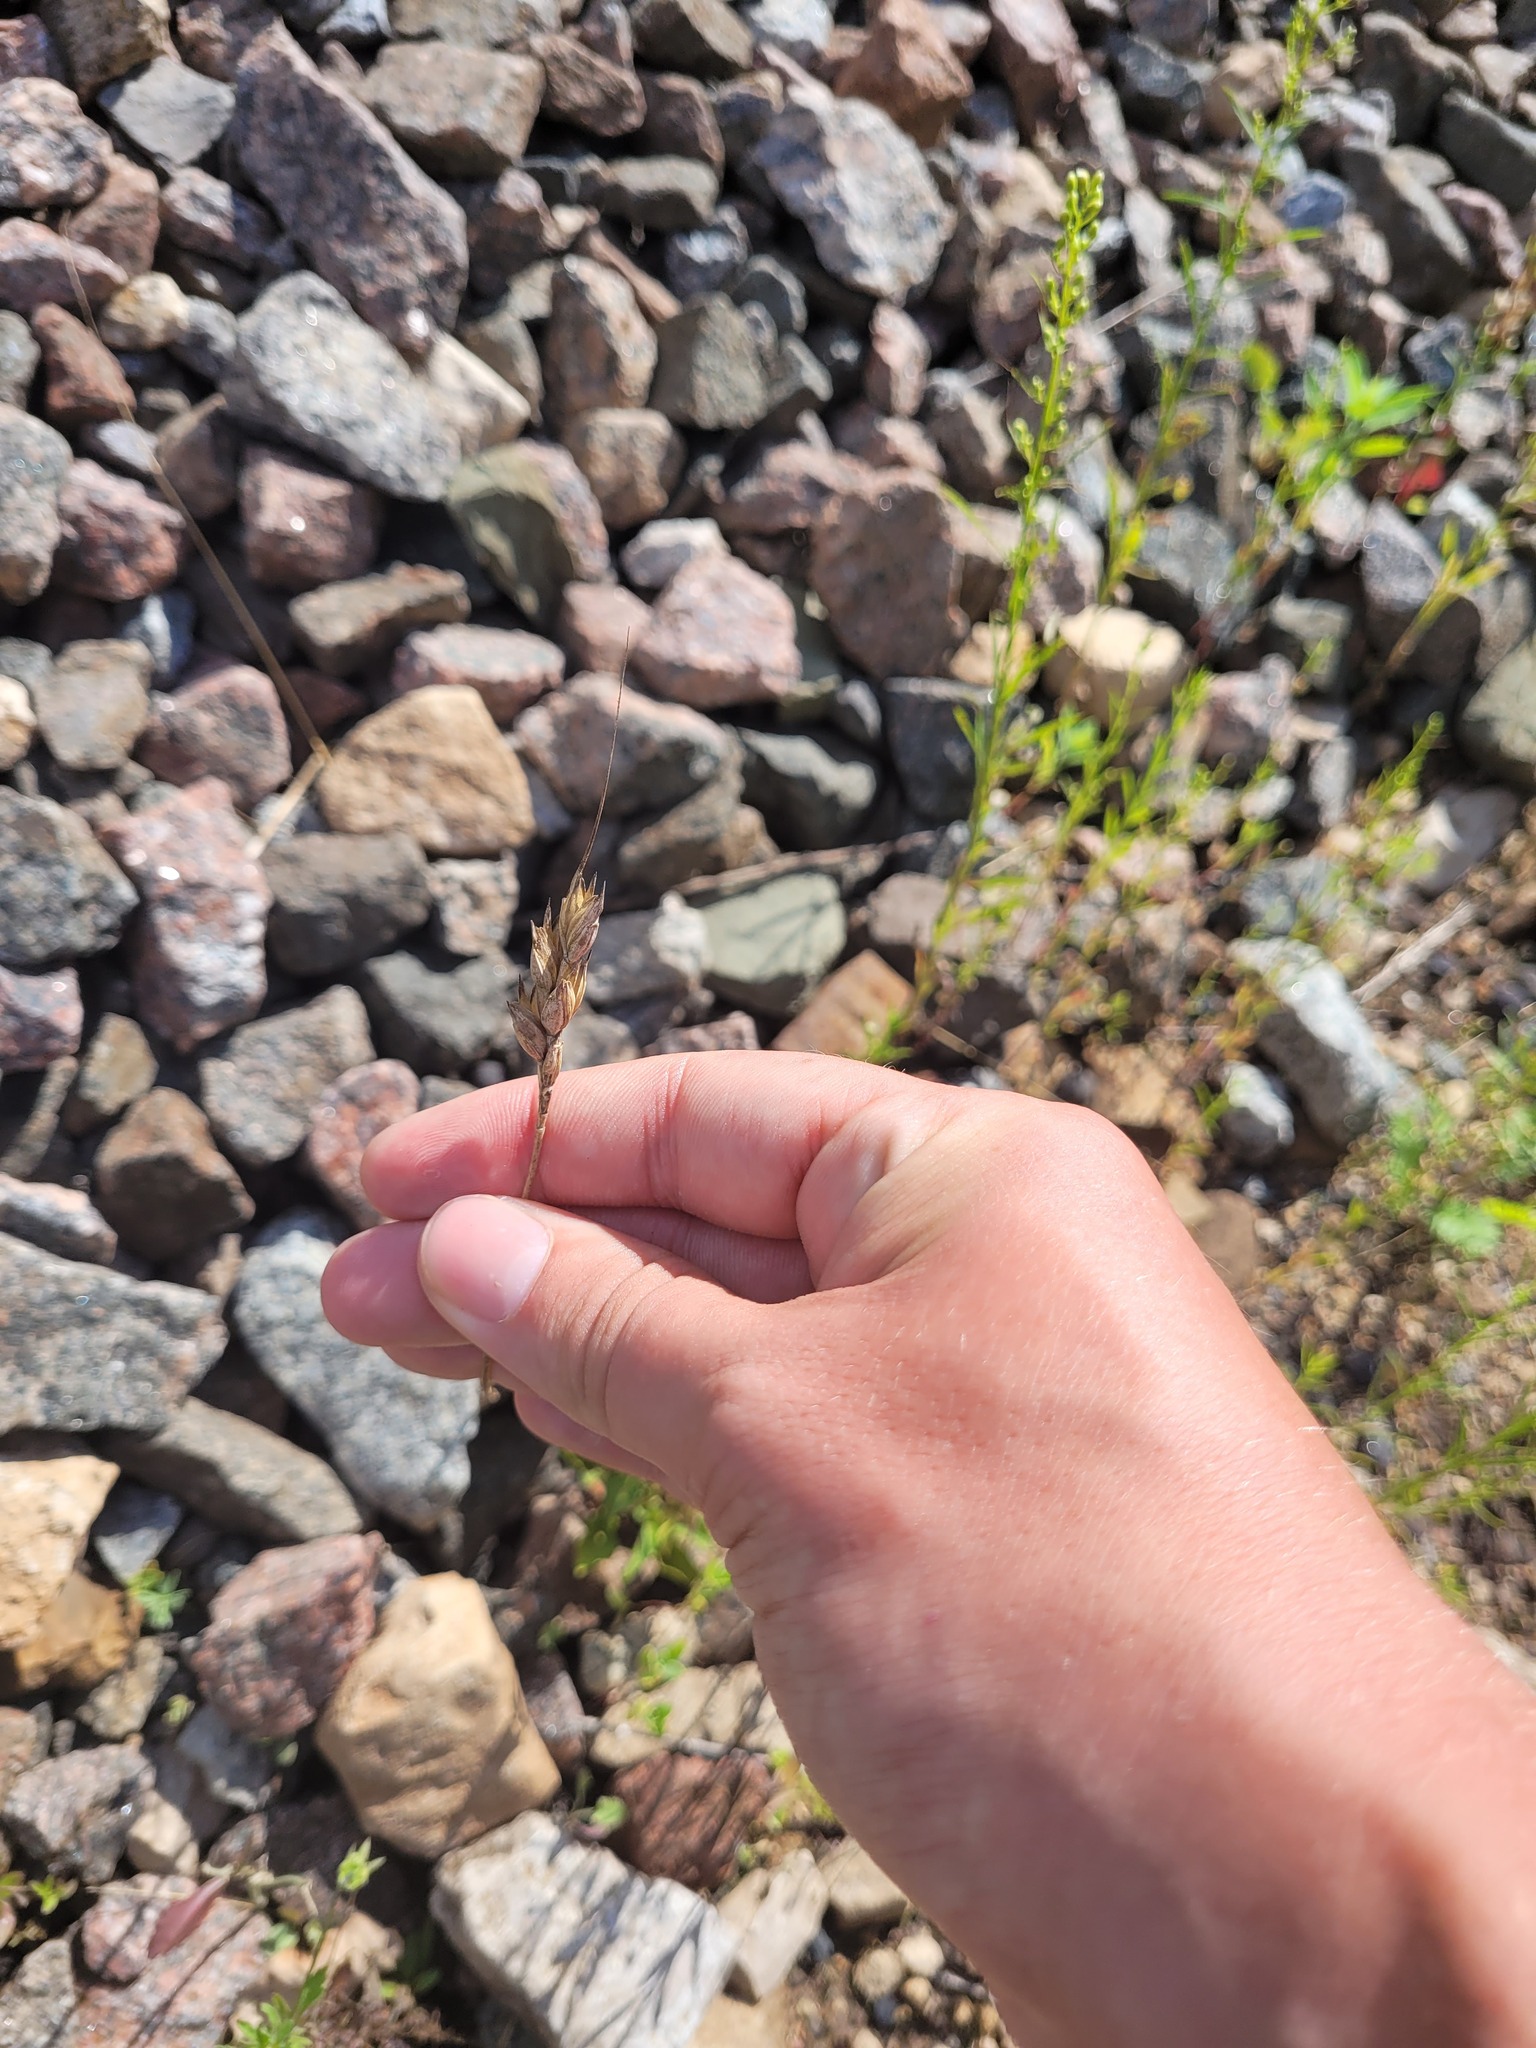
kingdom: Plantae
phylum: Tracheophyta
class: Liliopsida
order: Poales
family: Poaceae
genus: Triticum
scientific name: Triticum aestivum
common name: Common wheat
